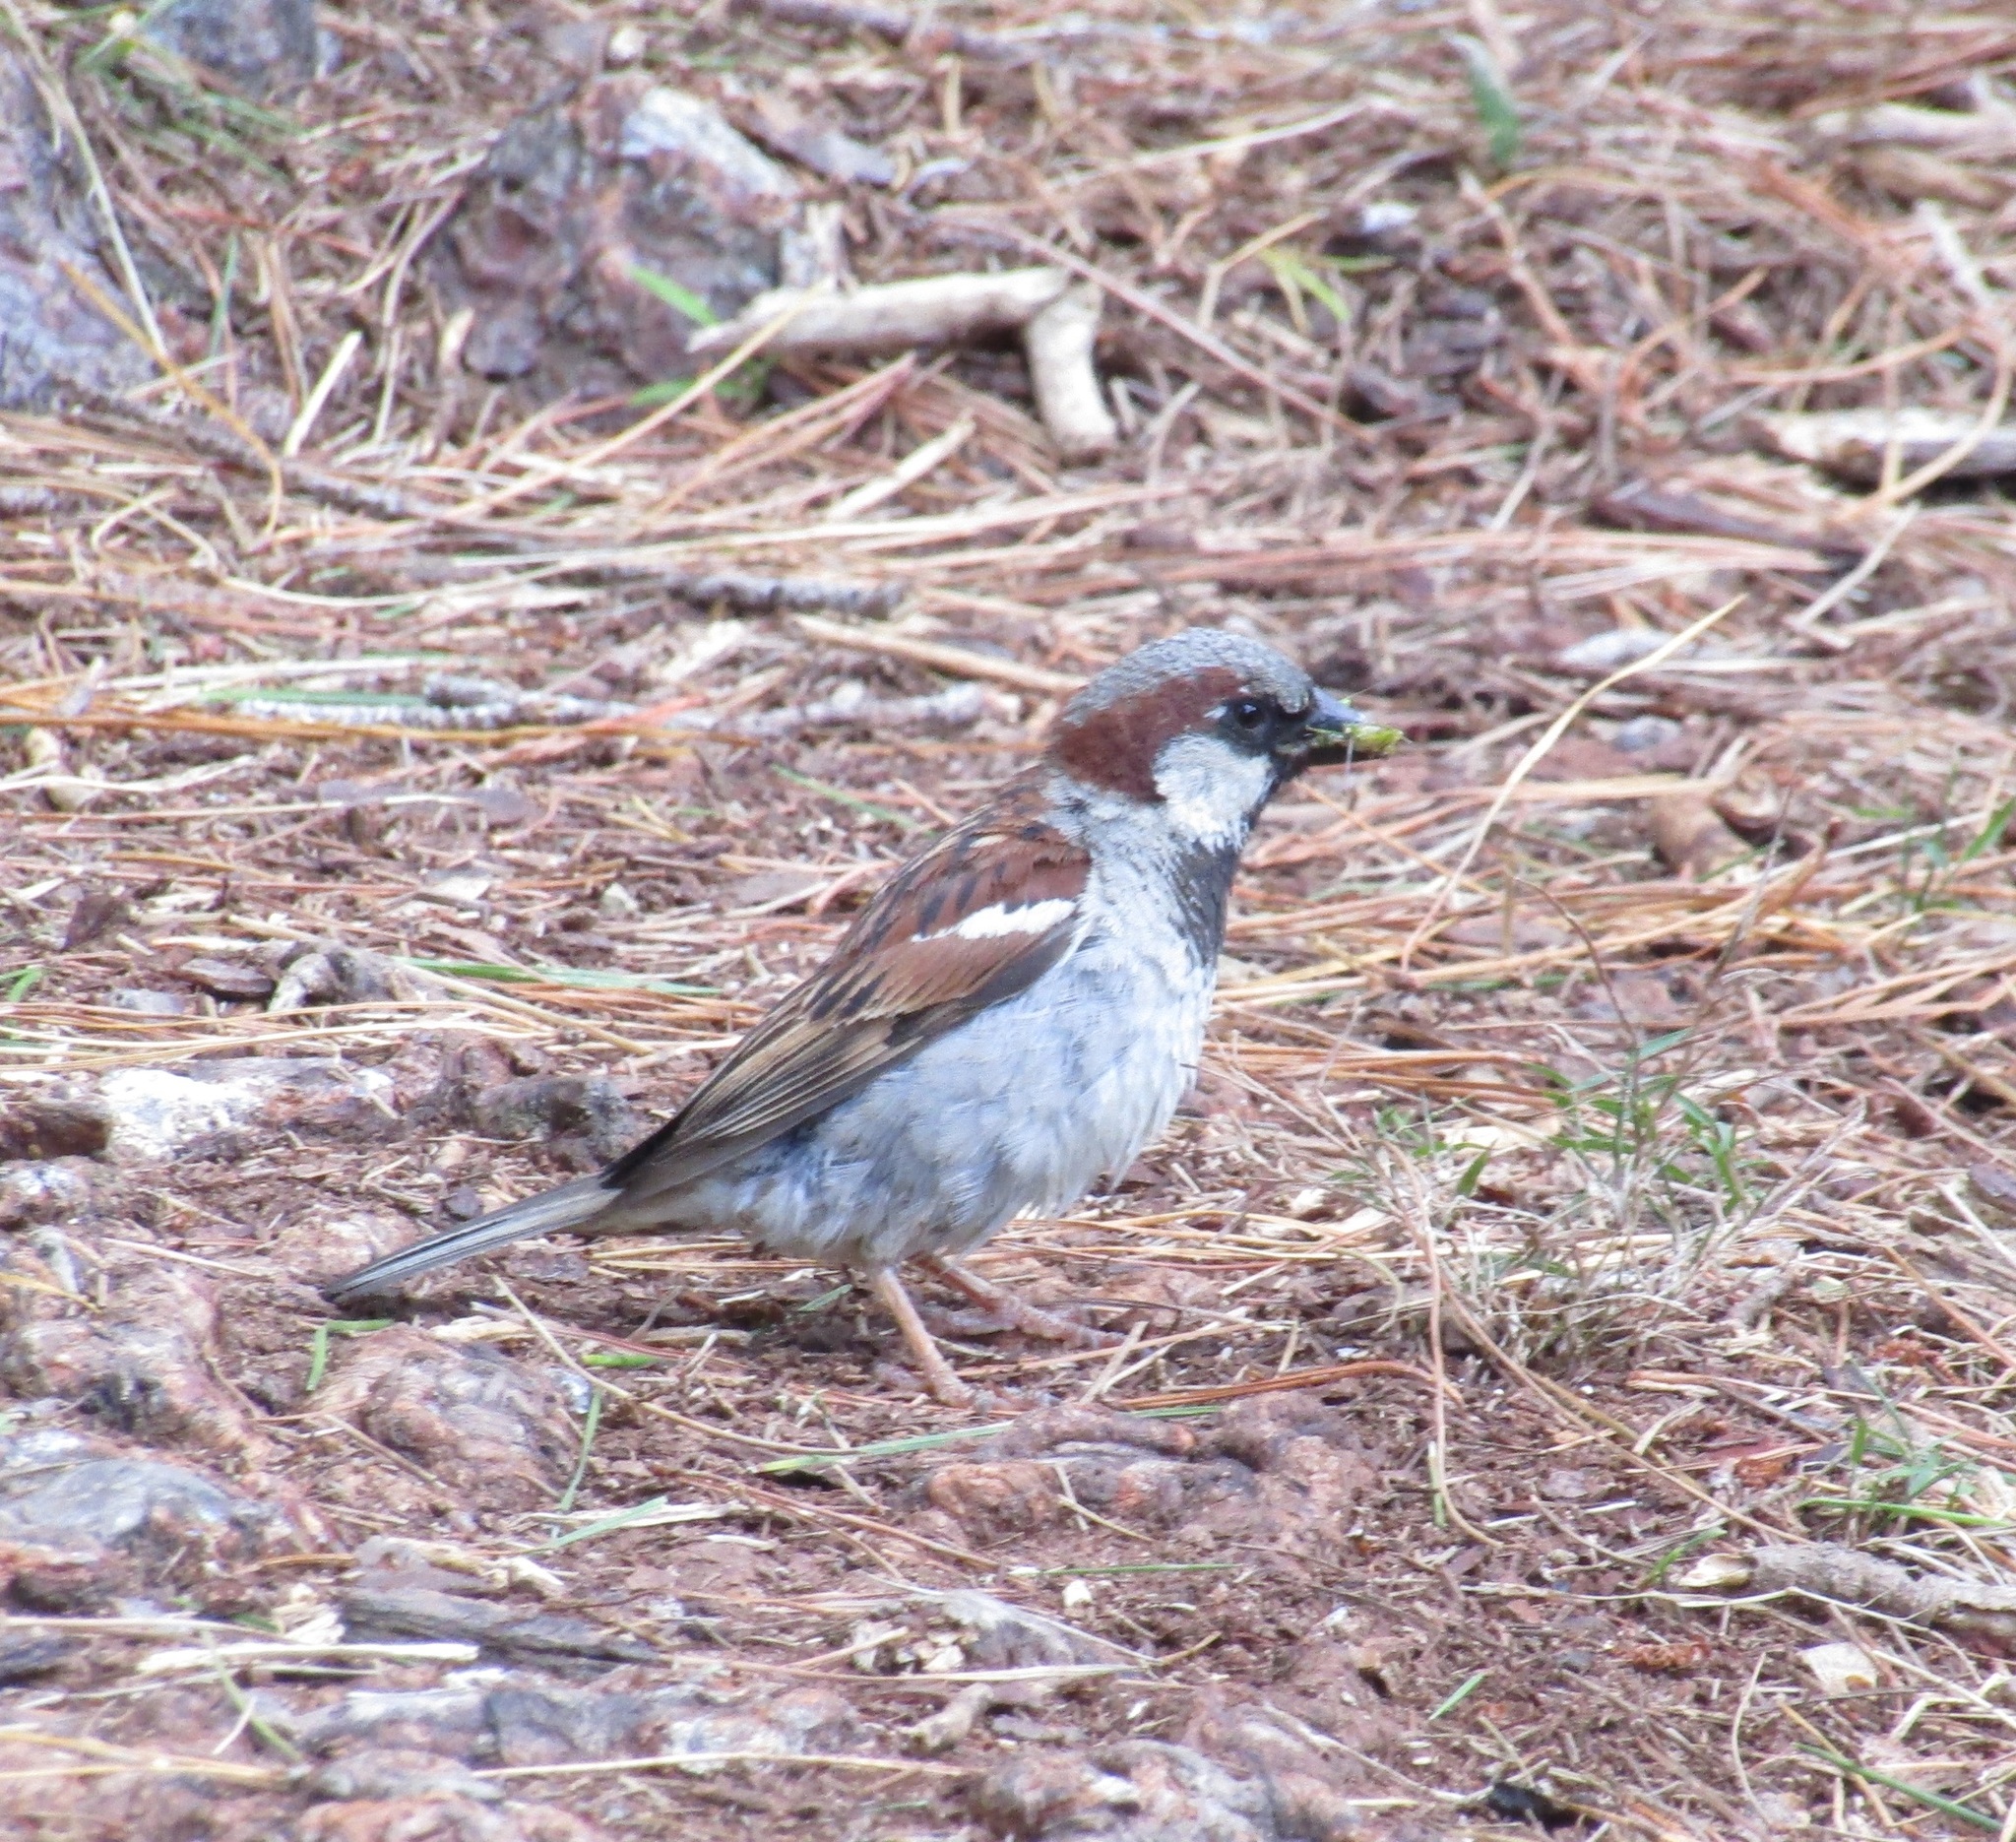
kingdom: Animalia
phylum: Chordata
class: Aves
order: Passeriformes
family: Passeridae
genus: Passer
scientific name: Passer domesticus
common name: House sparrow
